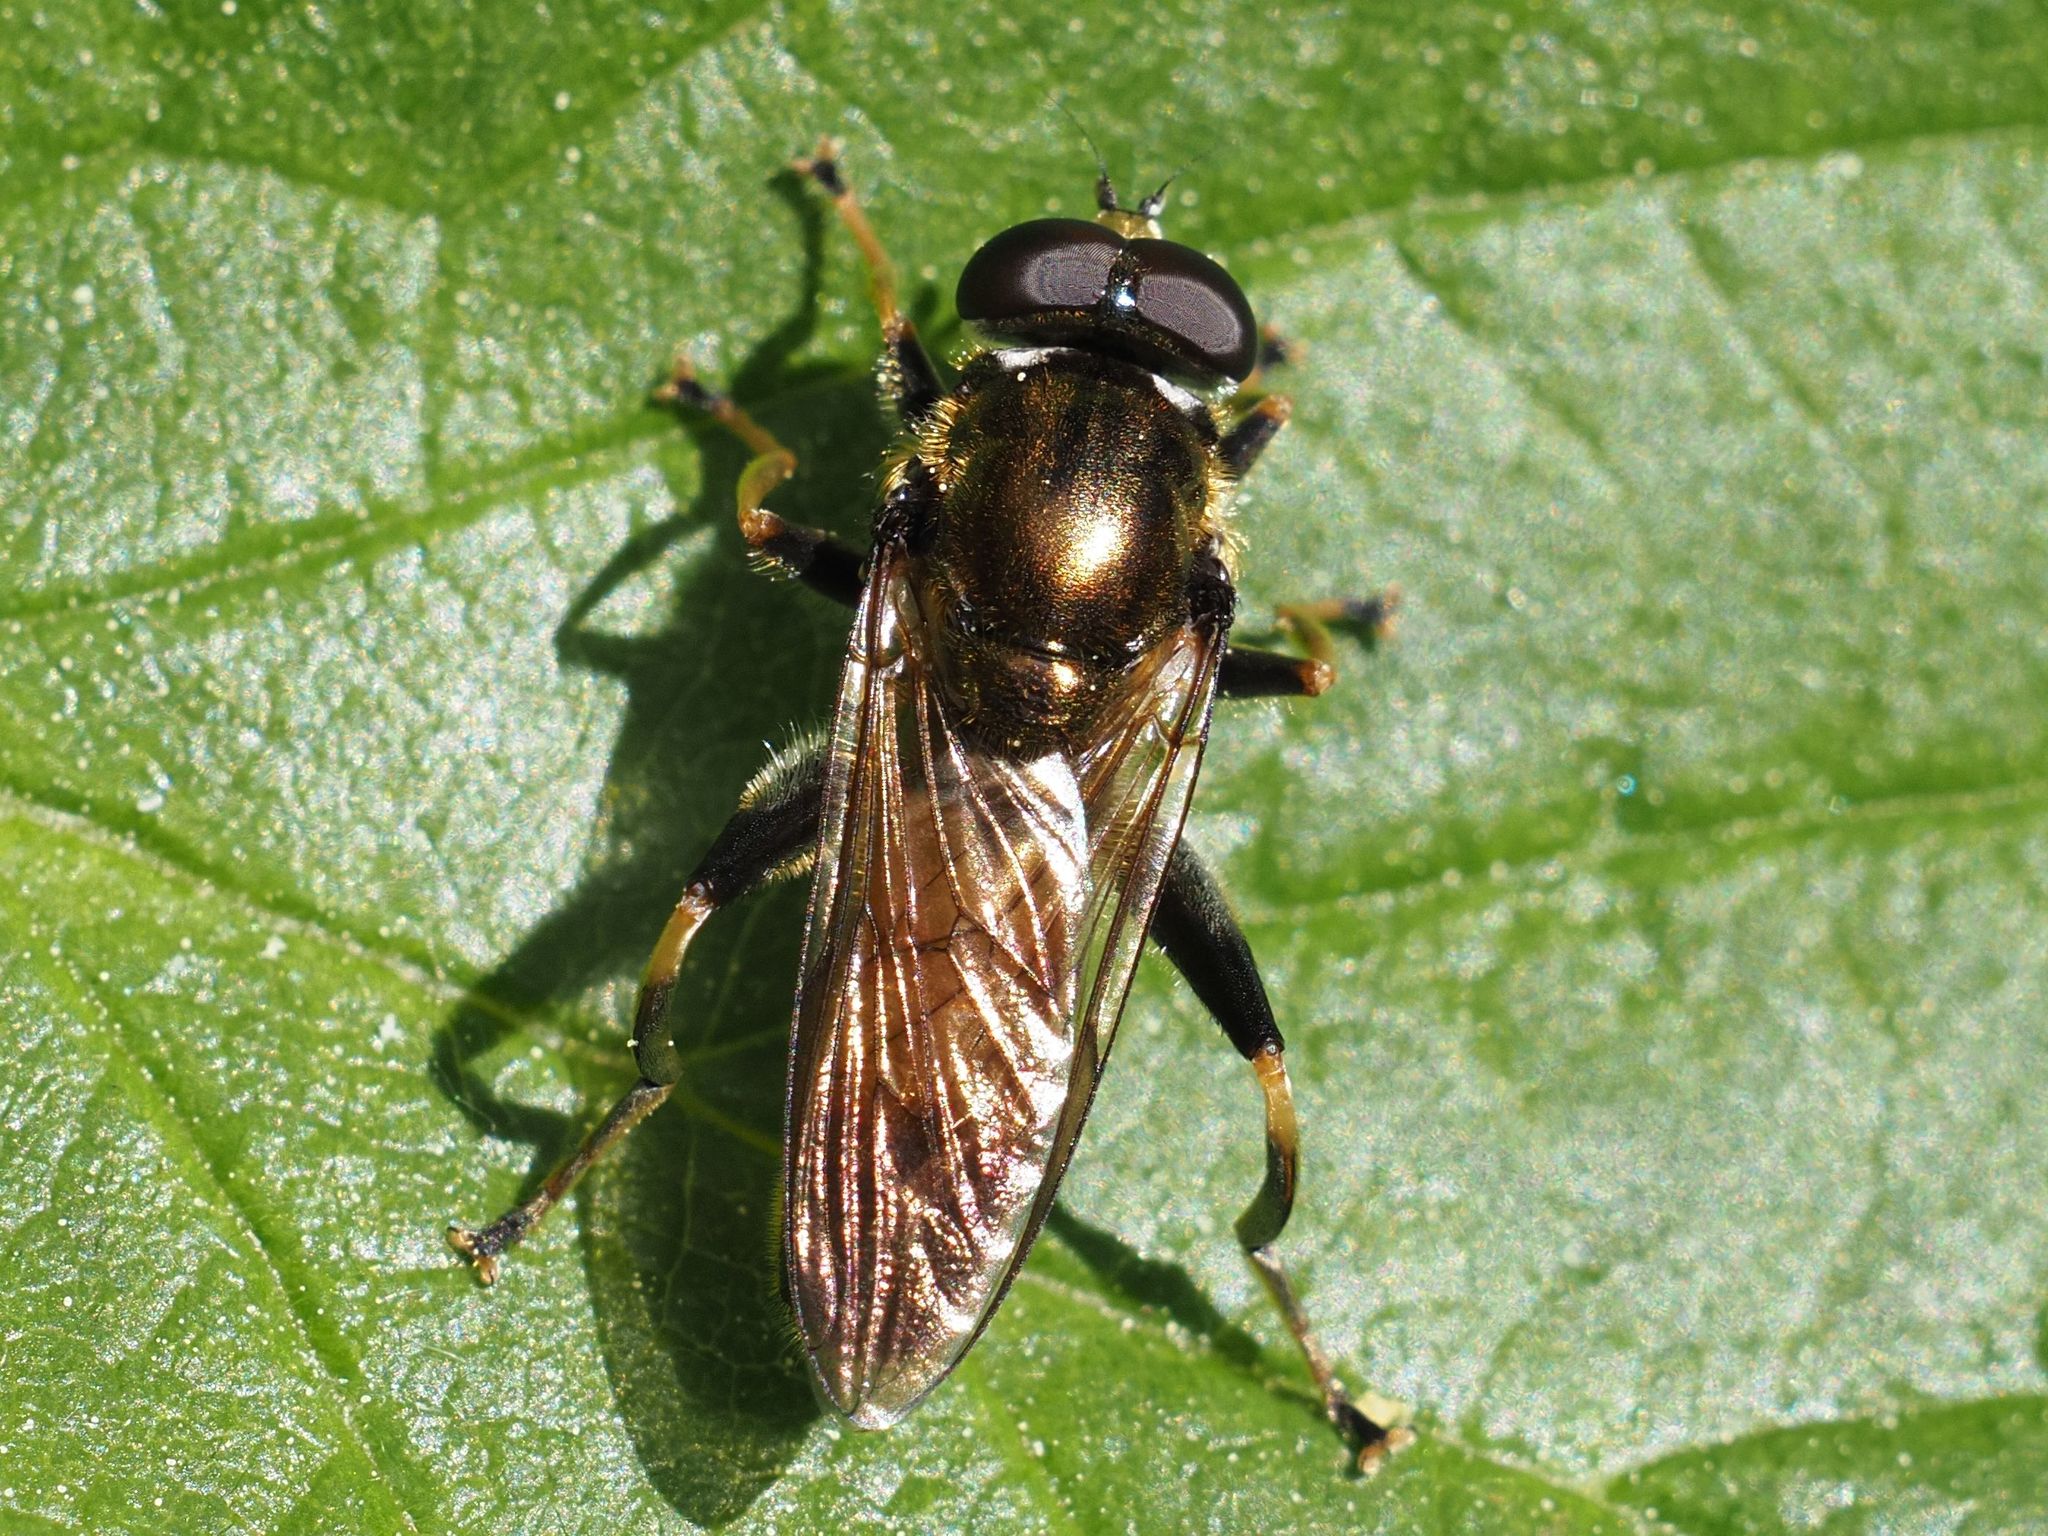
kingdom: Animalia
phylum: Arthropoda
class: Insecta
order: Diptera
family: Syrphidae
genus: Xylota
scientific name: Xylota segnis
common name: Brown-toed forest fly
